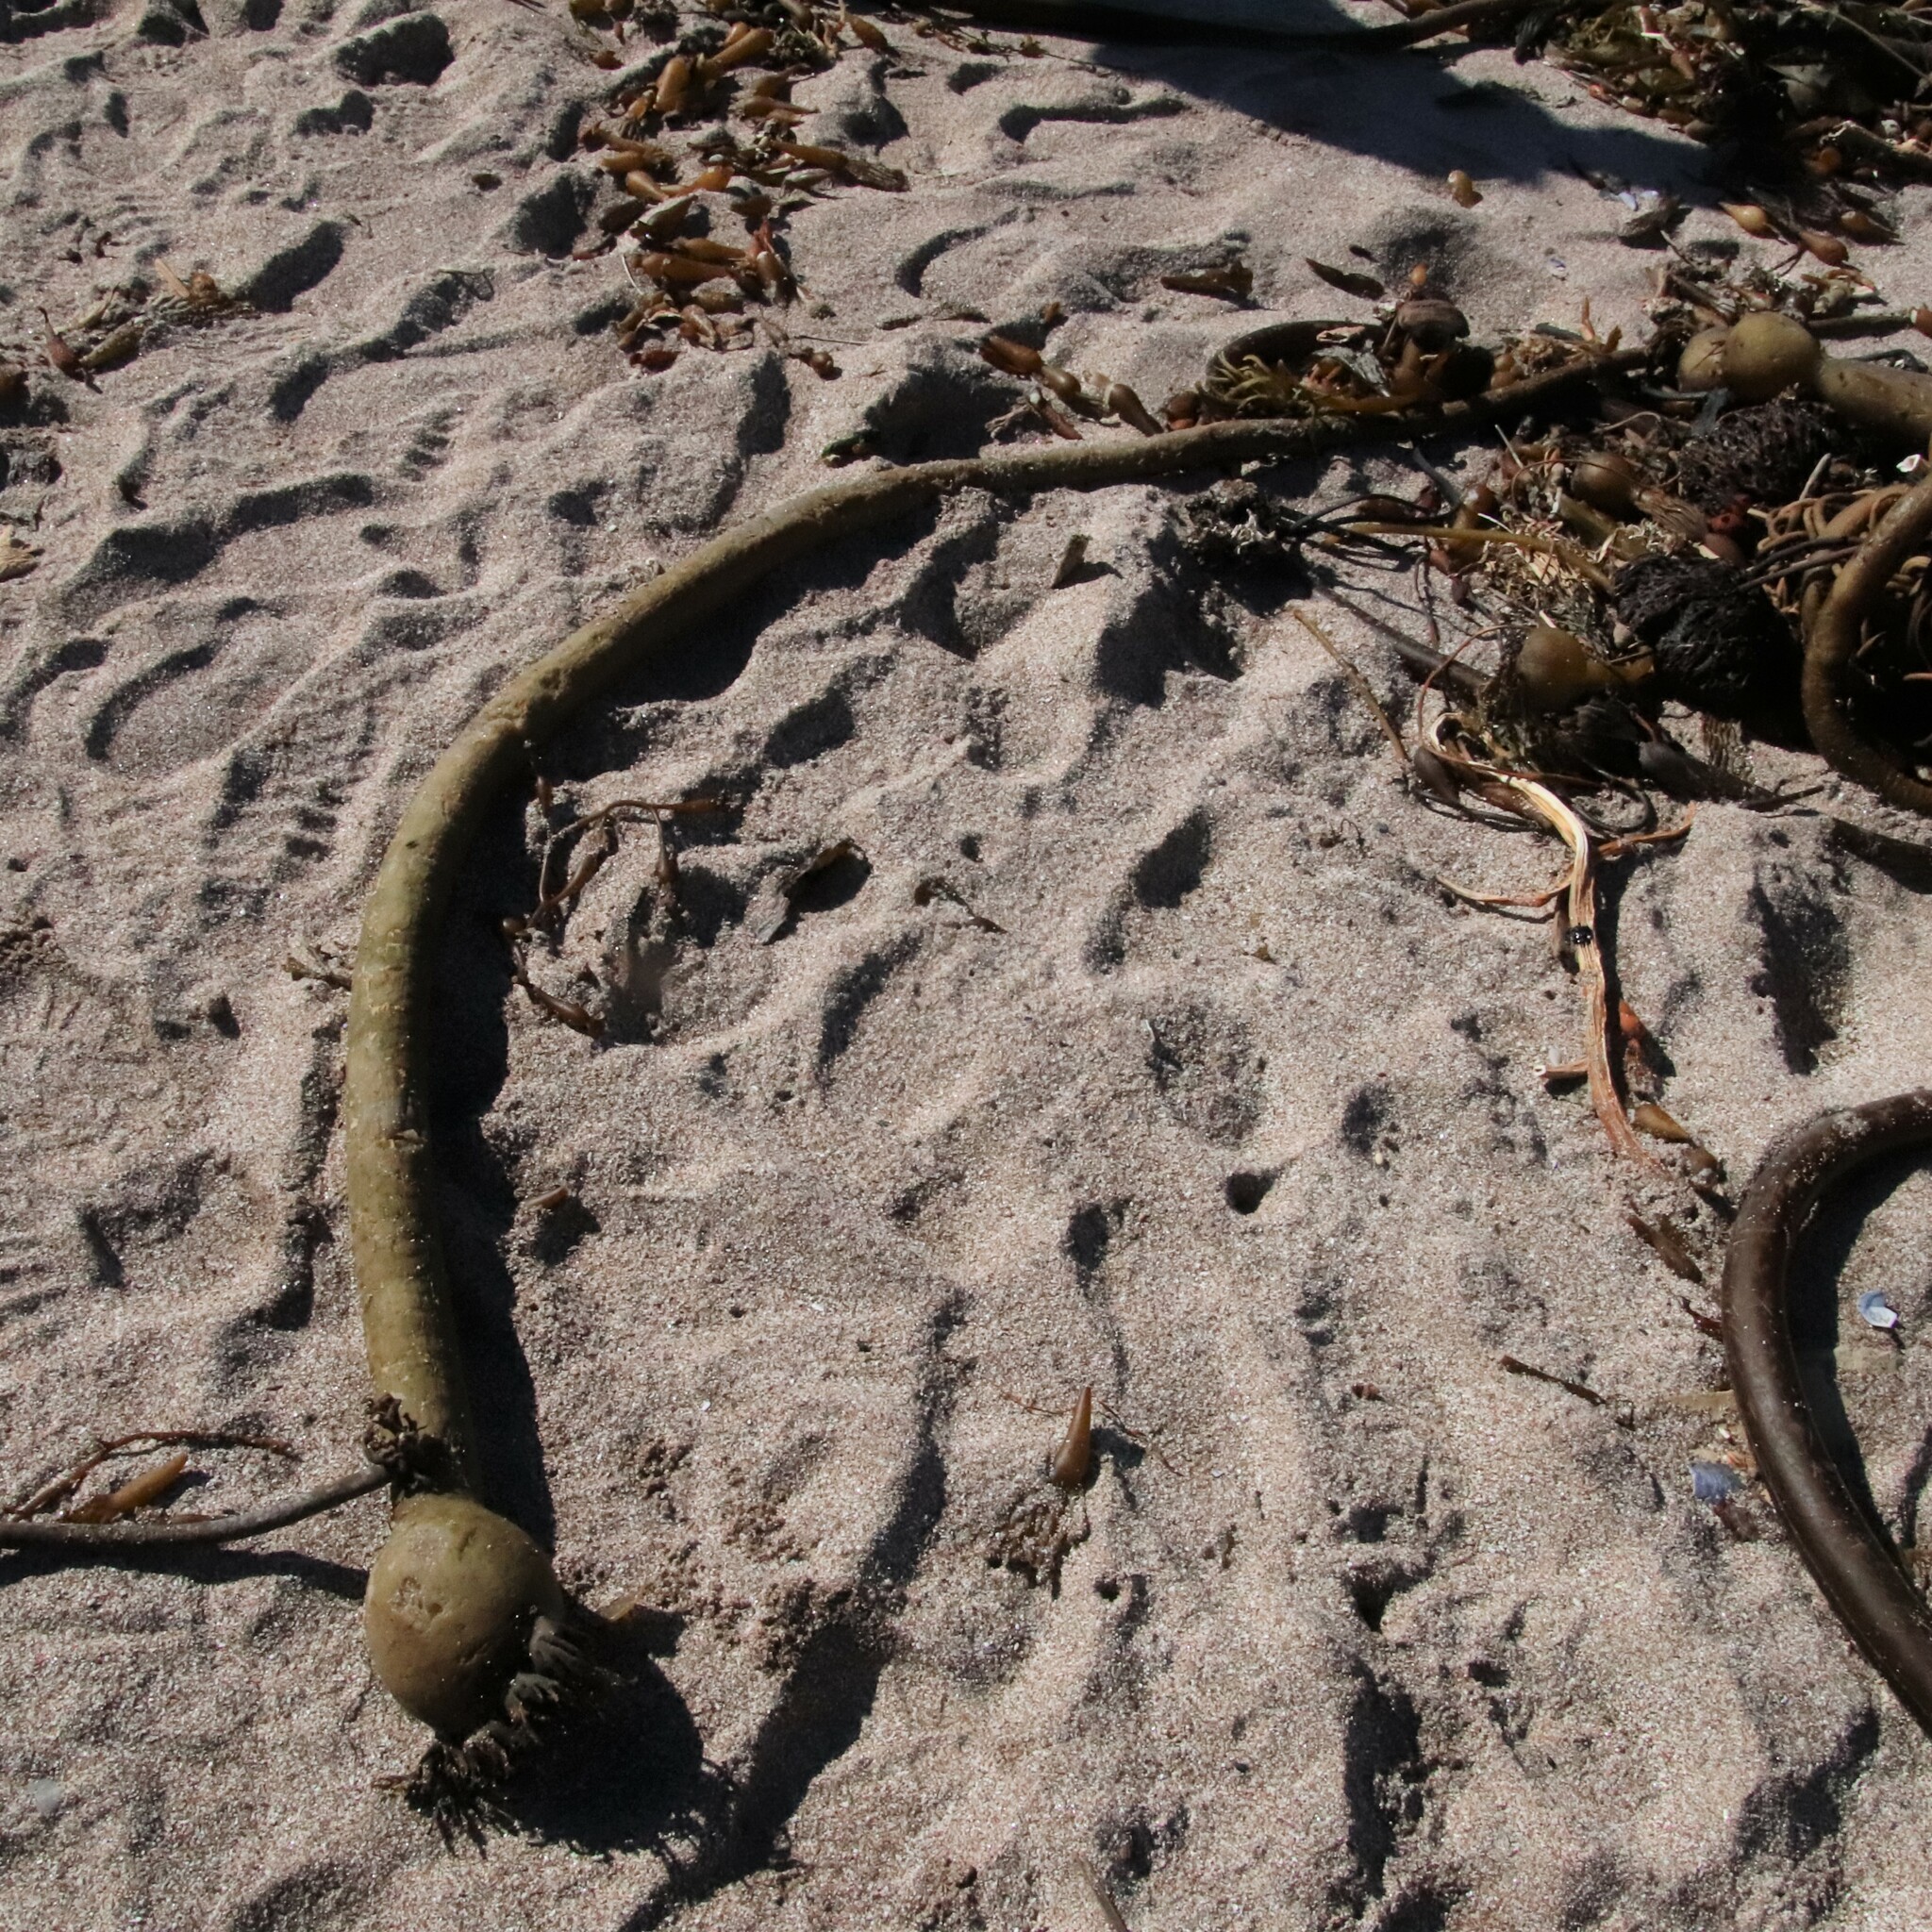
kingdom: Chromista
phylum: Ochrophyta
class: Phaeophyceae
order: Laminariales
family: Laminariaceae
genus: Nereocystis
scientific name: Nereocystis luetkeana
